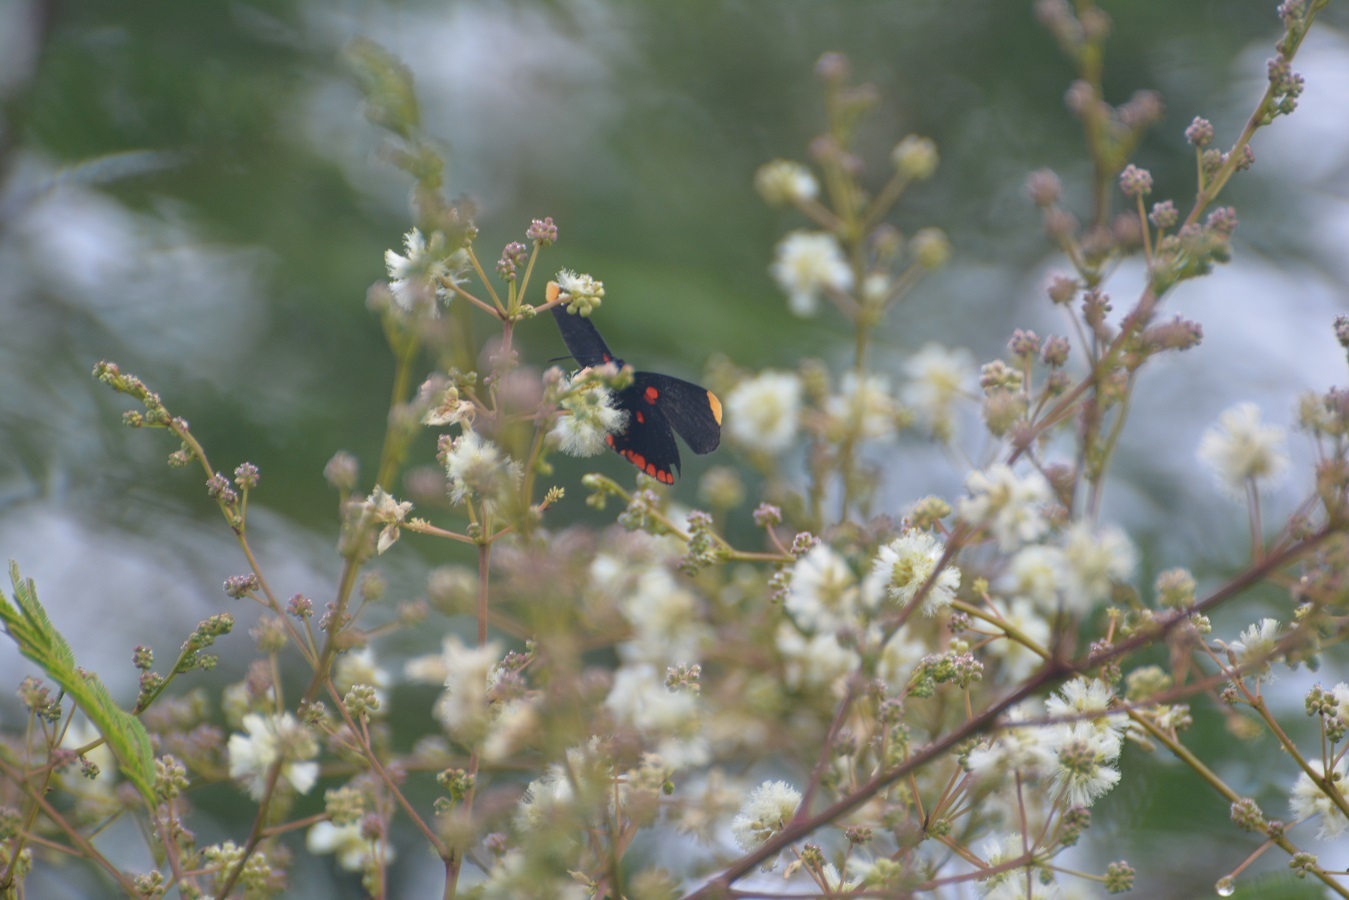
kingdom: Animalia
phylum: Arthropoda
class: Insecta
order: Lepidoptera
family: Lycaenidae
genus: Melanis
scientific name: Melanis pixe
